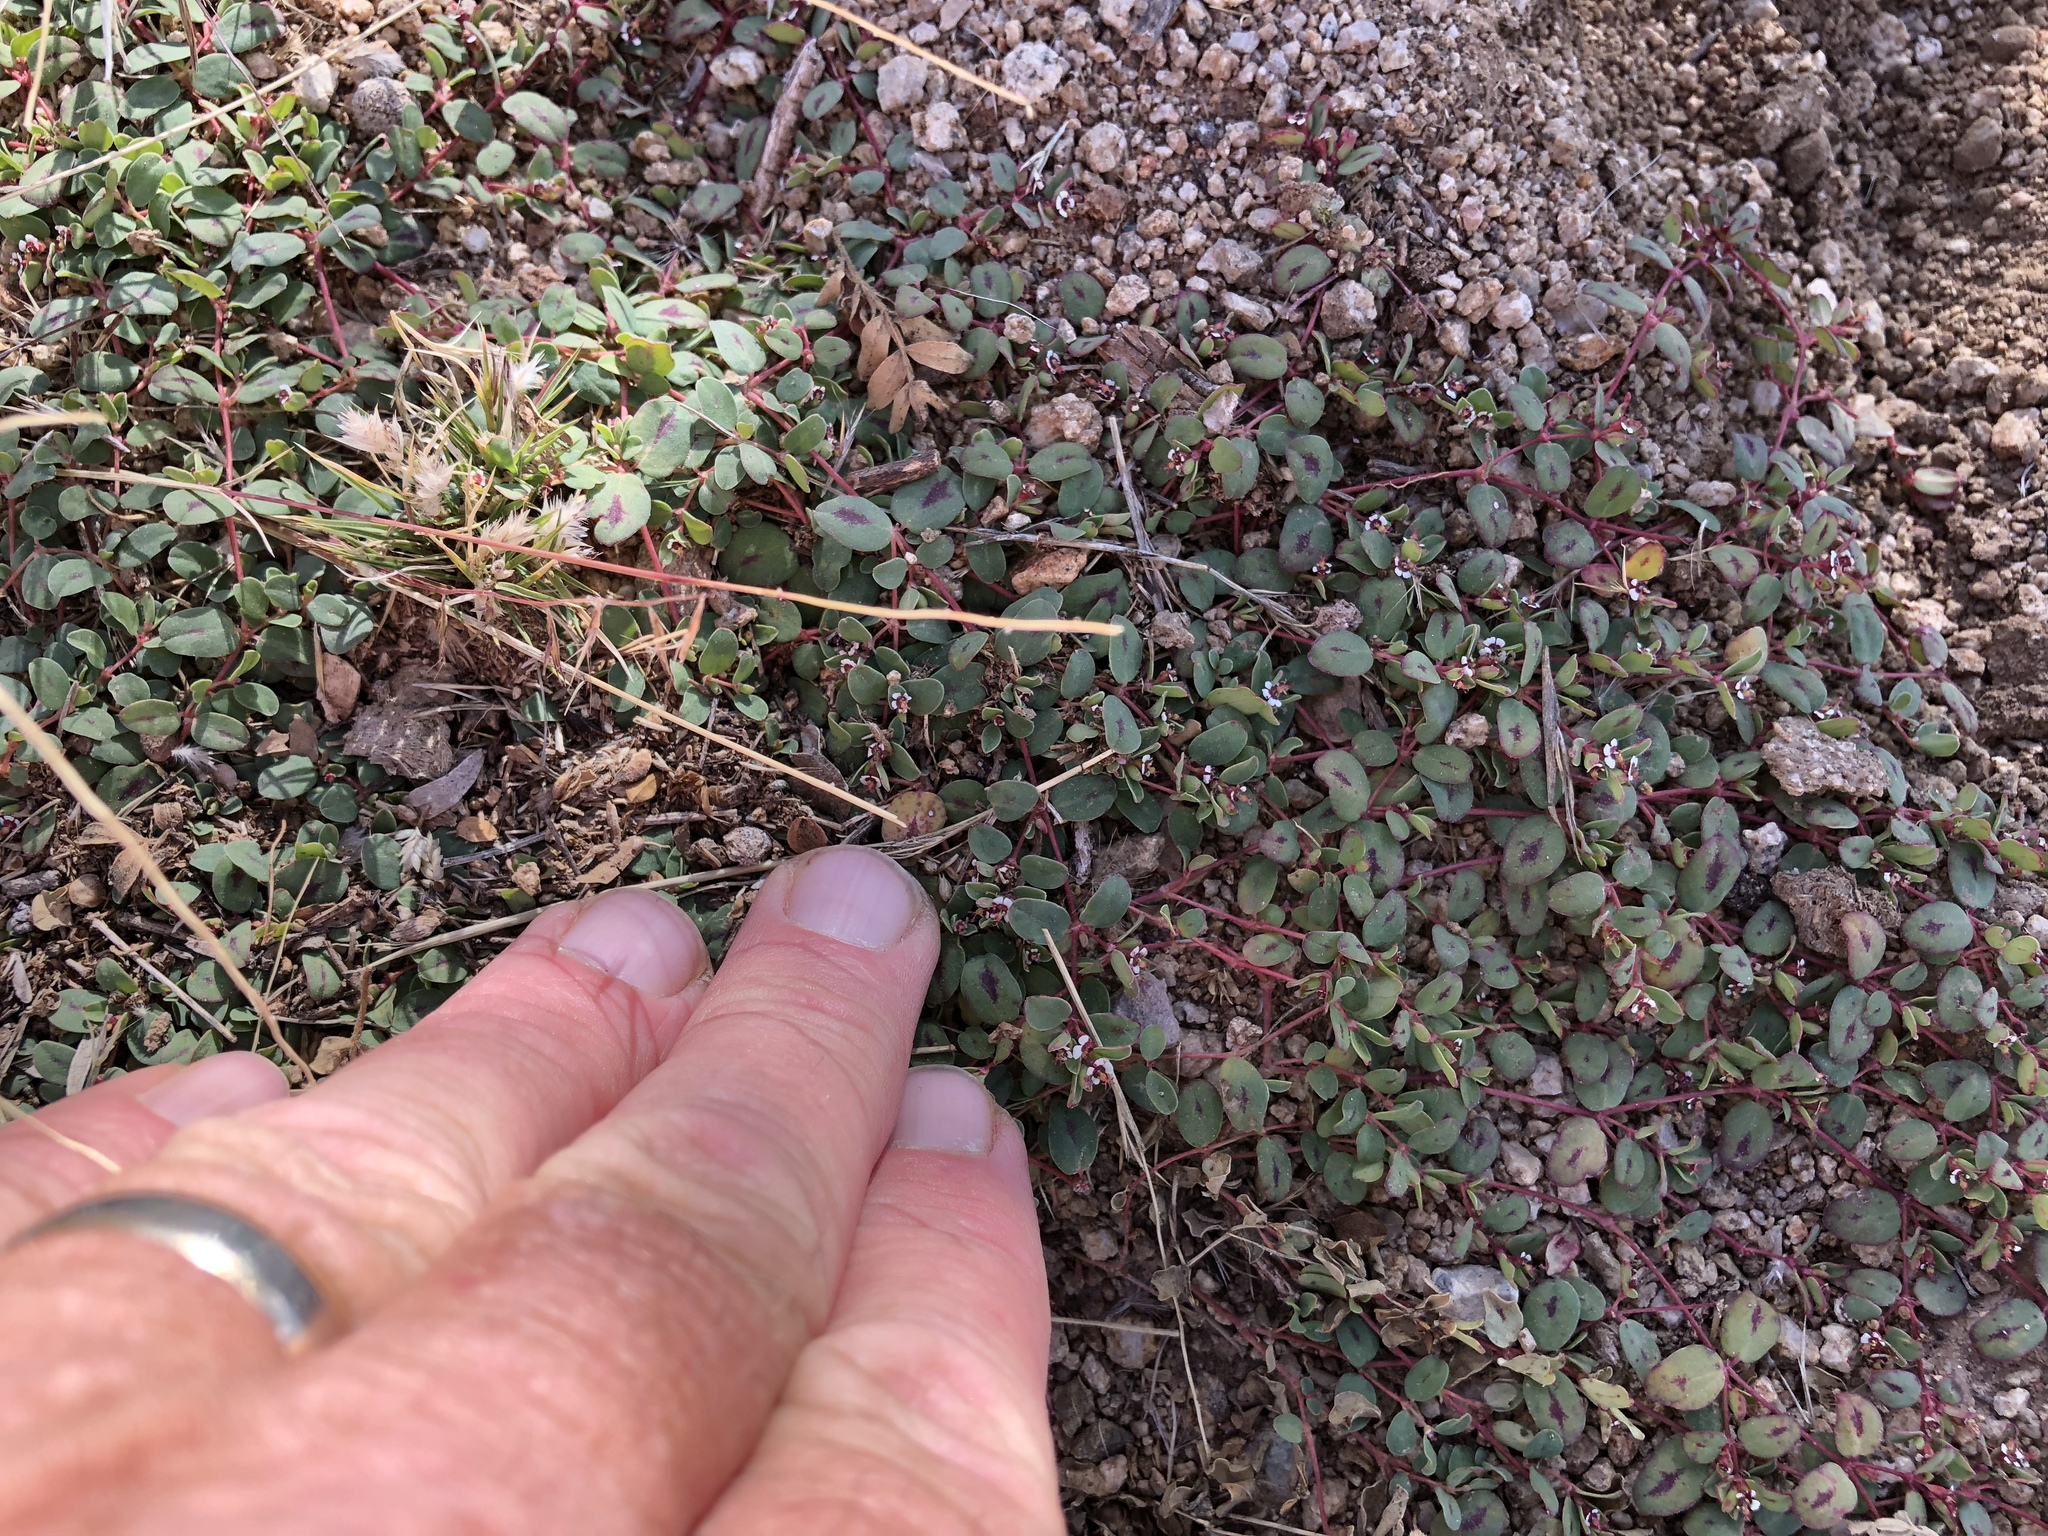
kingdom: Plantae
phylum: Tracheophyta
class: Magnoliopsida
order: Malpighiales
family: Euphorbiaceae
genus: Euphorbia
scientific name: Euphorbia albomarginata
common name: Whitemargin sandmat
